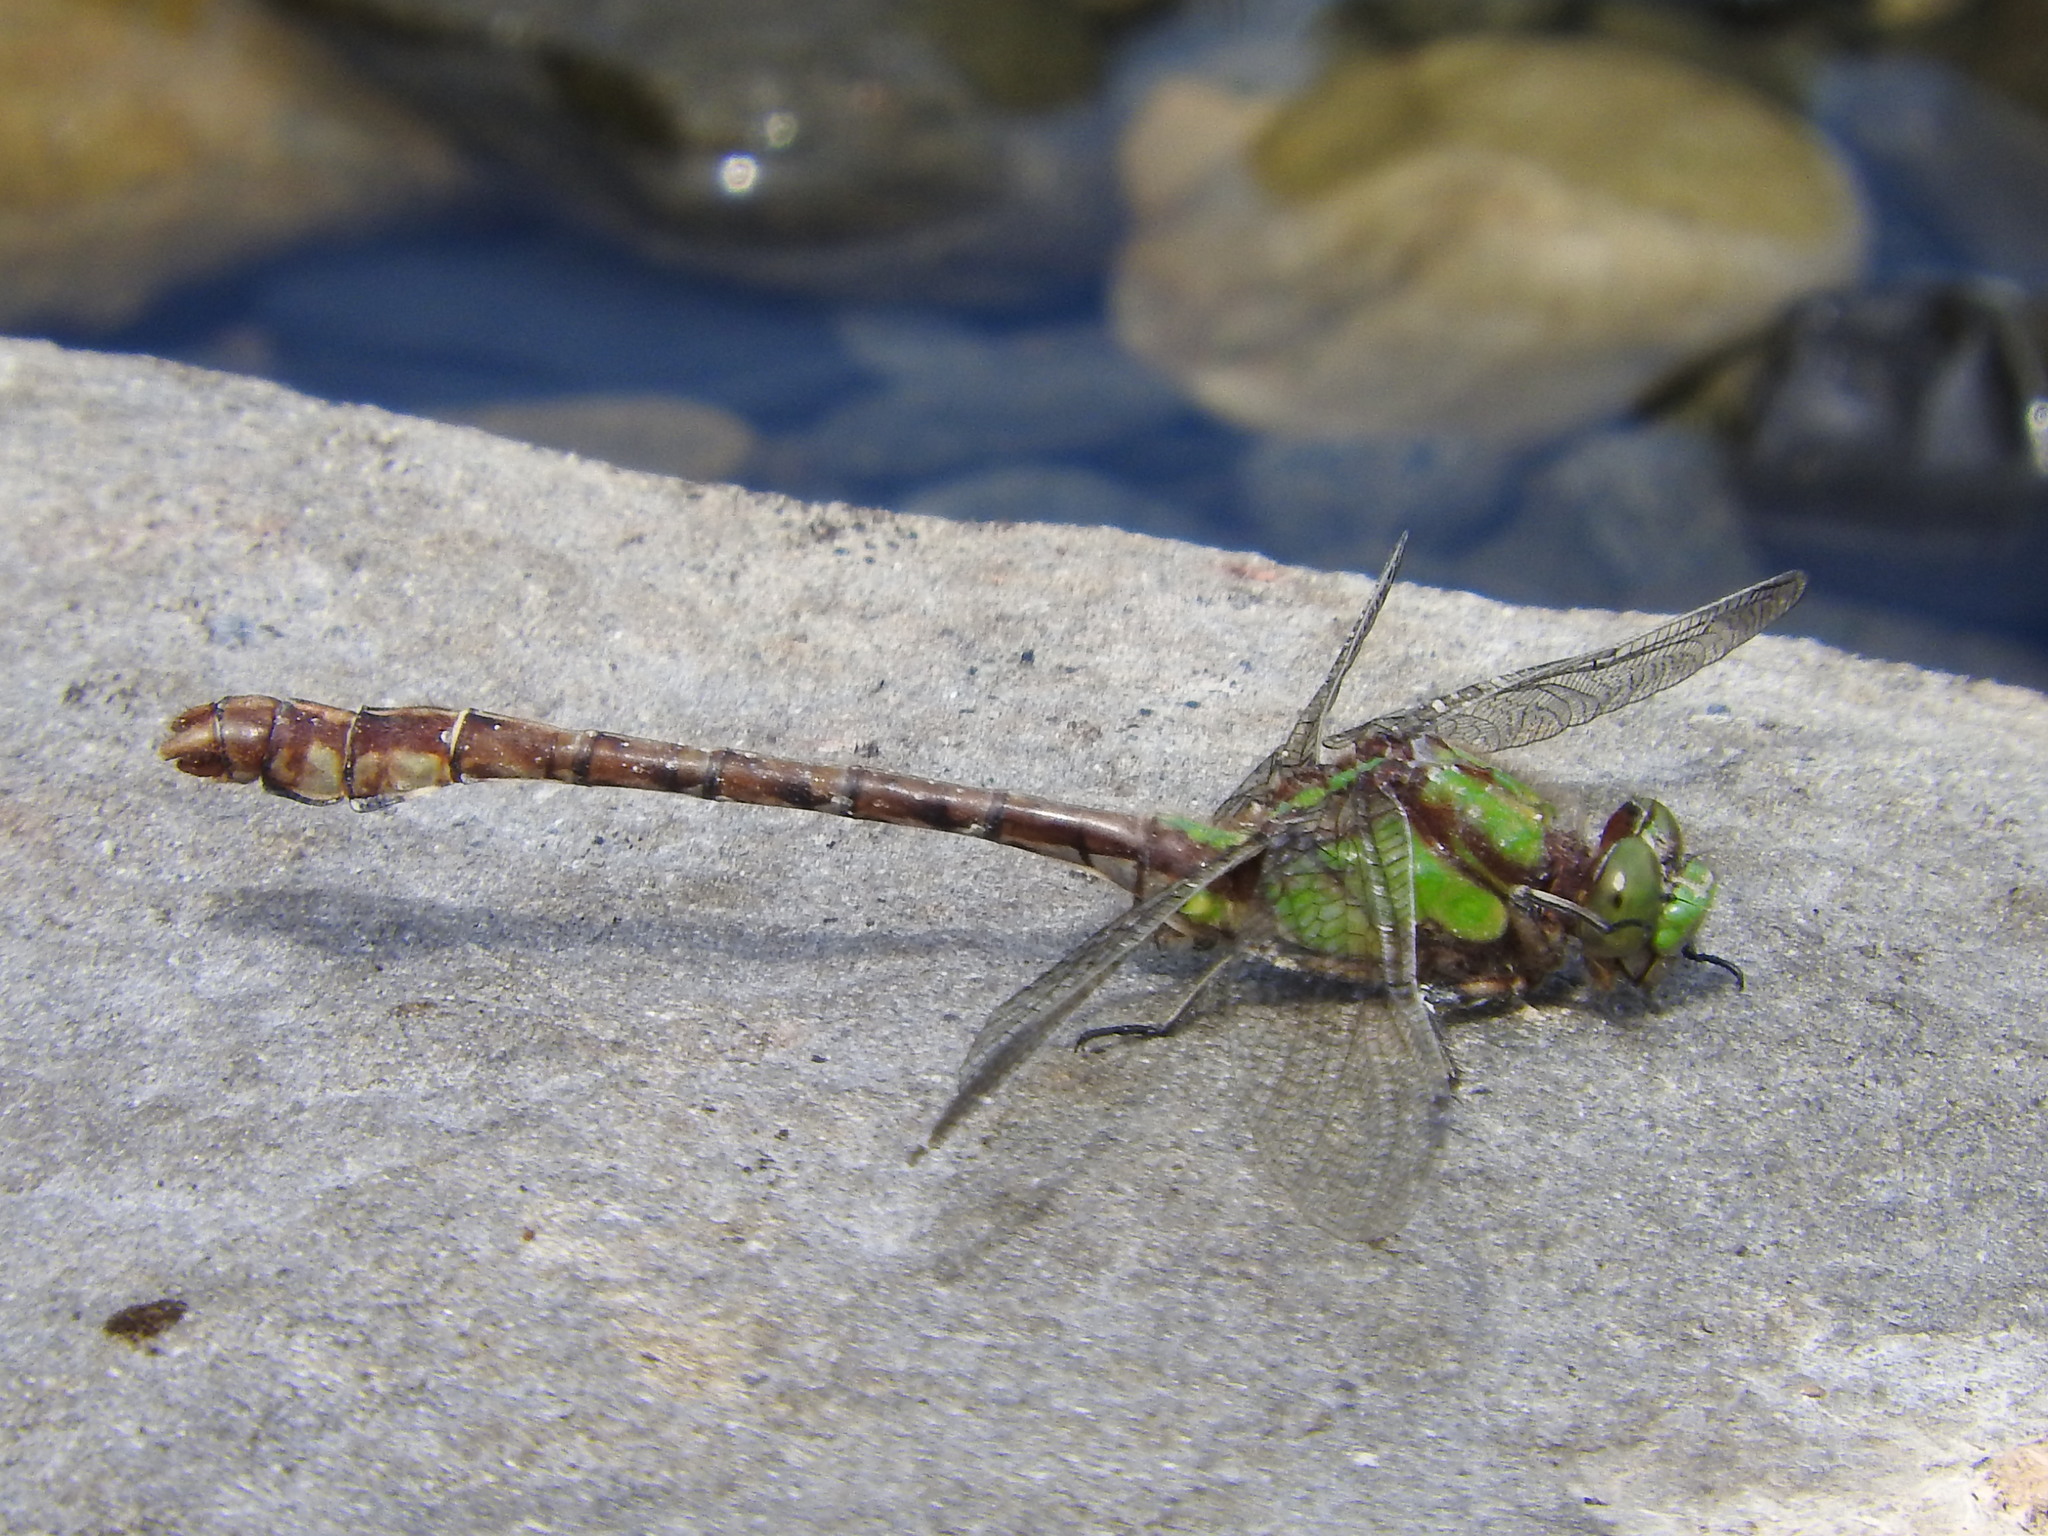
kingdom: Animalia
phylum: Arthropoda
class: Insecta
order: Odonata
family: Gomphidae
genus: Ophiogomphus
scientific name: Ophiogomphus rupinsulensis
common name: Rusty snaketail
